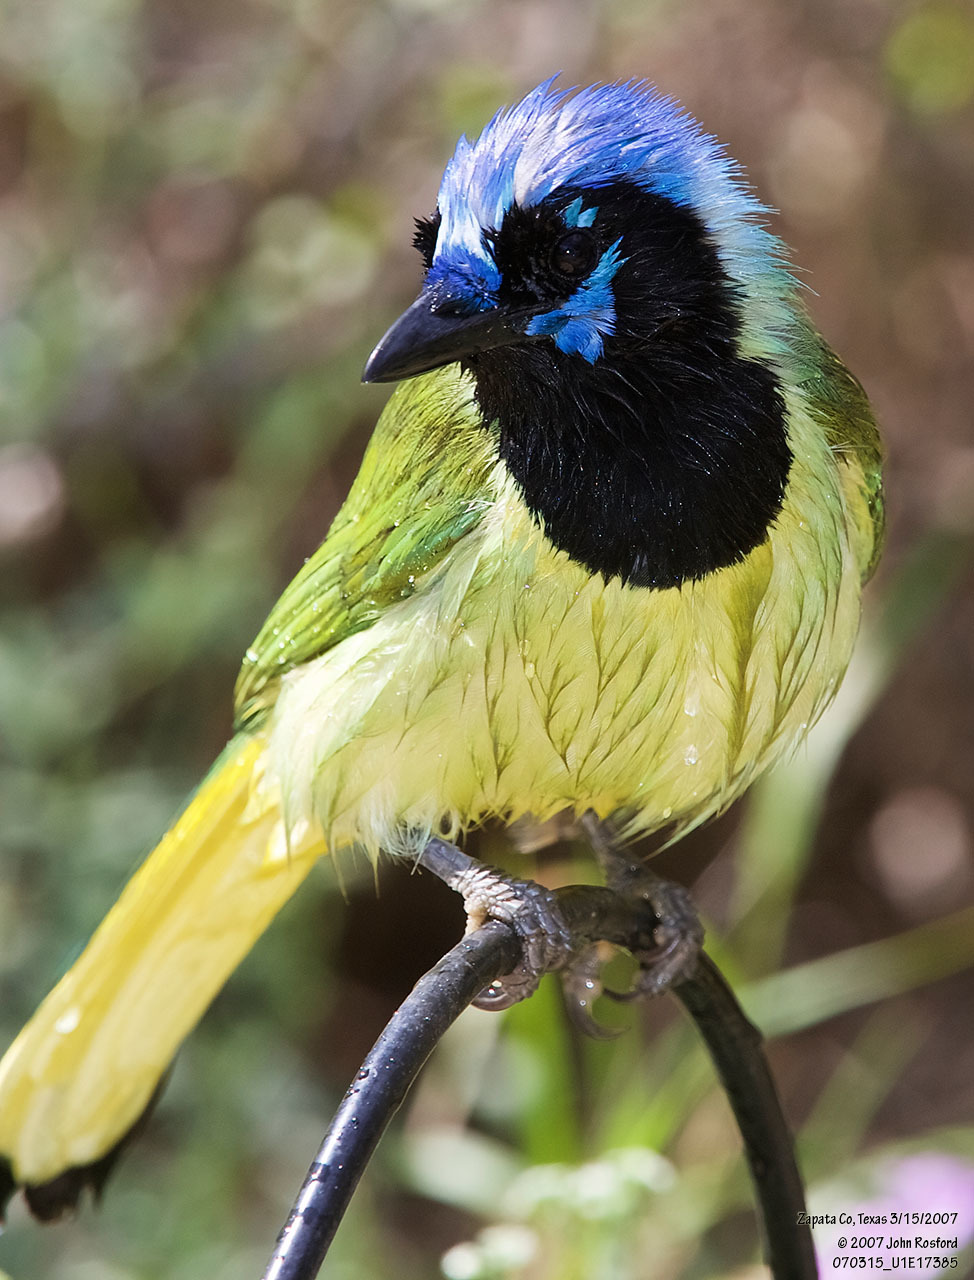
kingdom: Animalia
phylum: Chordata
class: Aves
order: Passeriformes
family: Corvidae
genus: Cyanocorax
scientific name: Cyanocorax yncas
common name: Green jay
